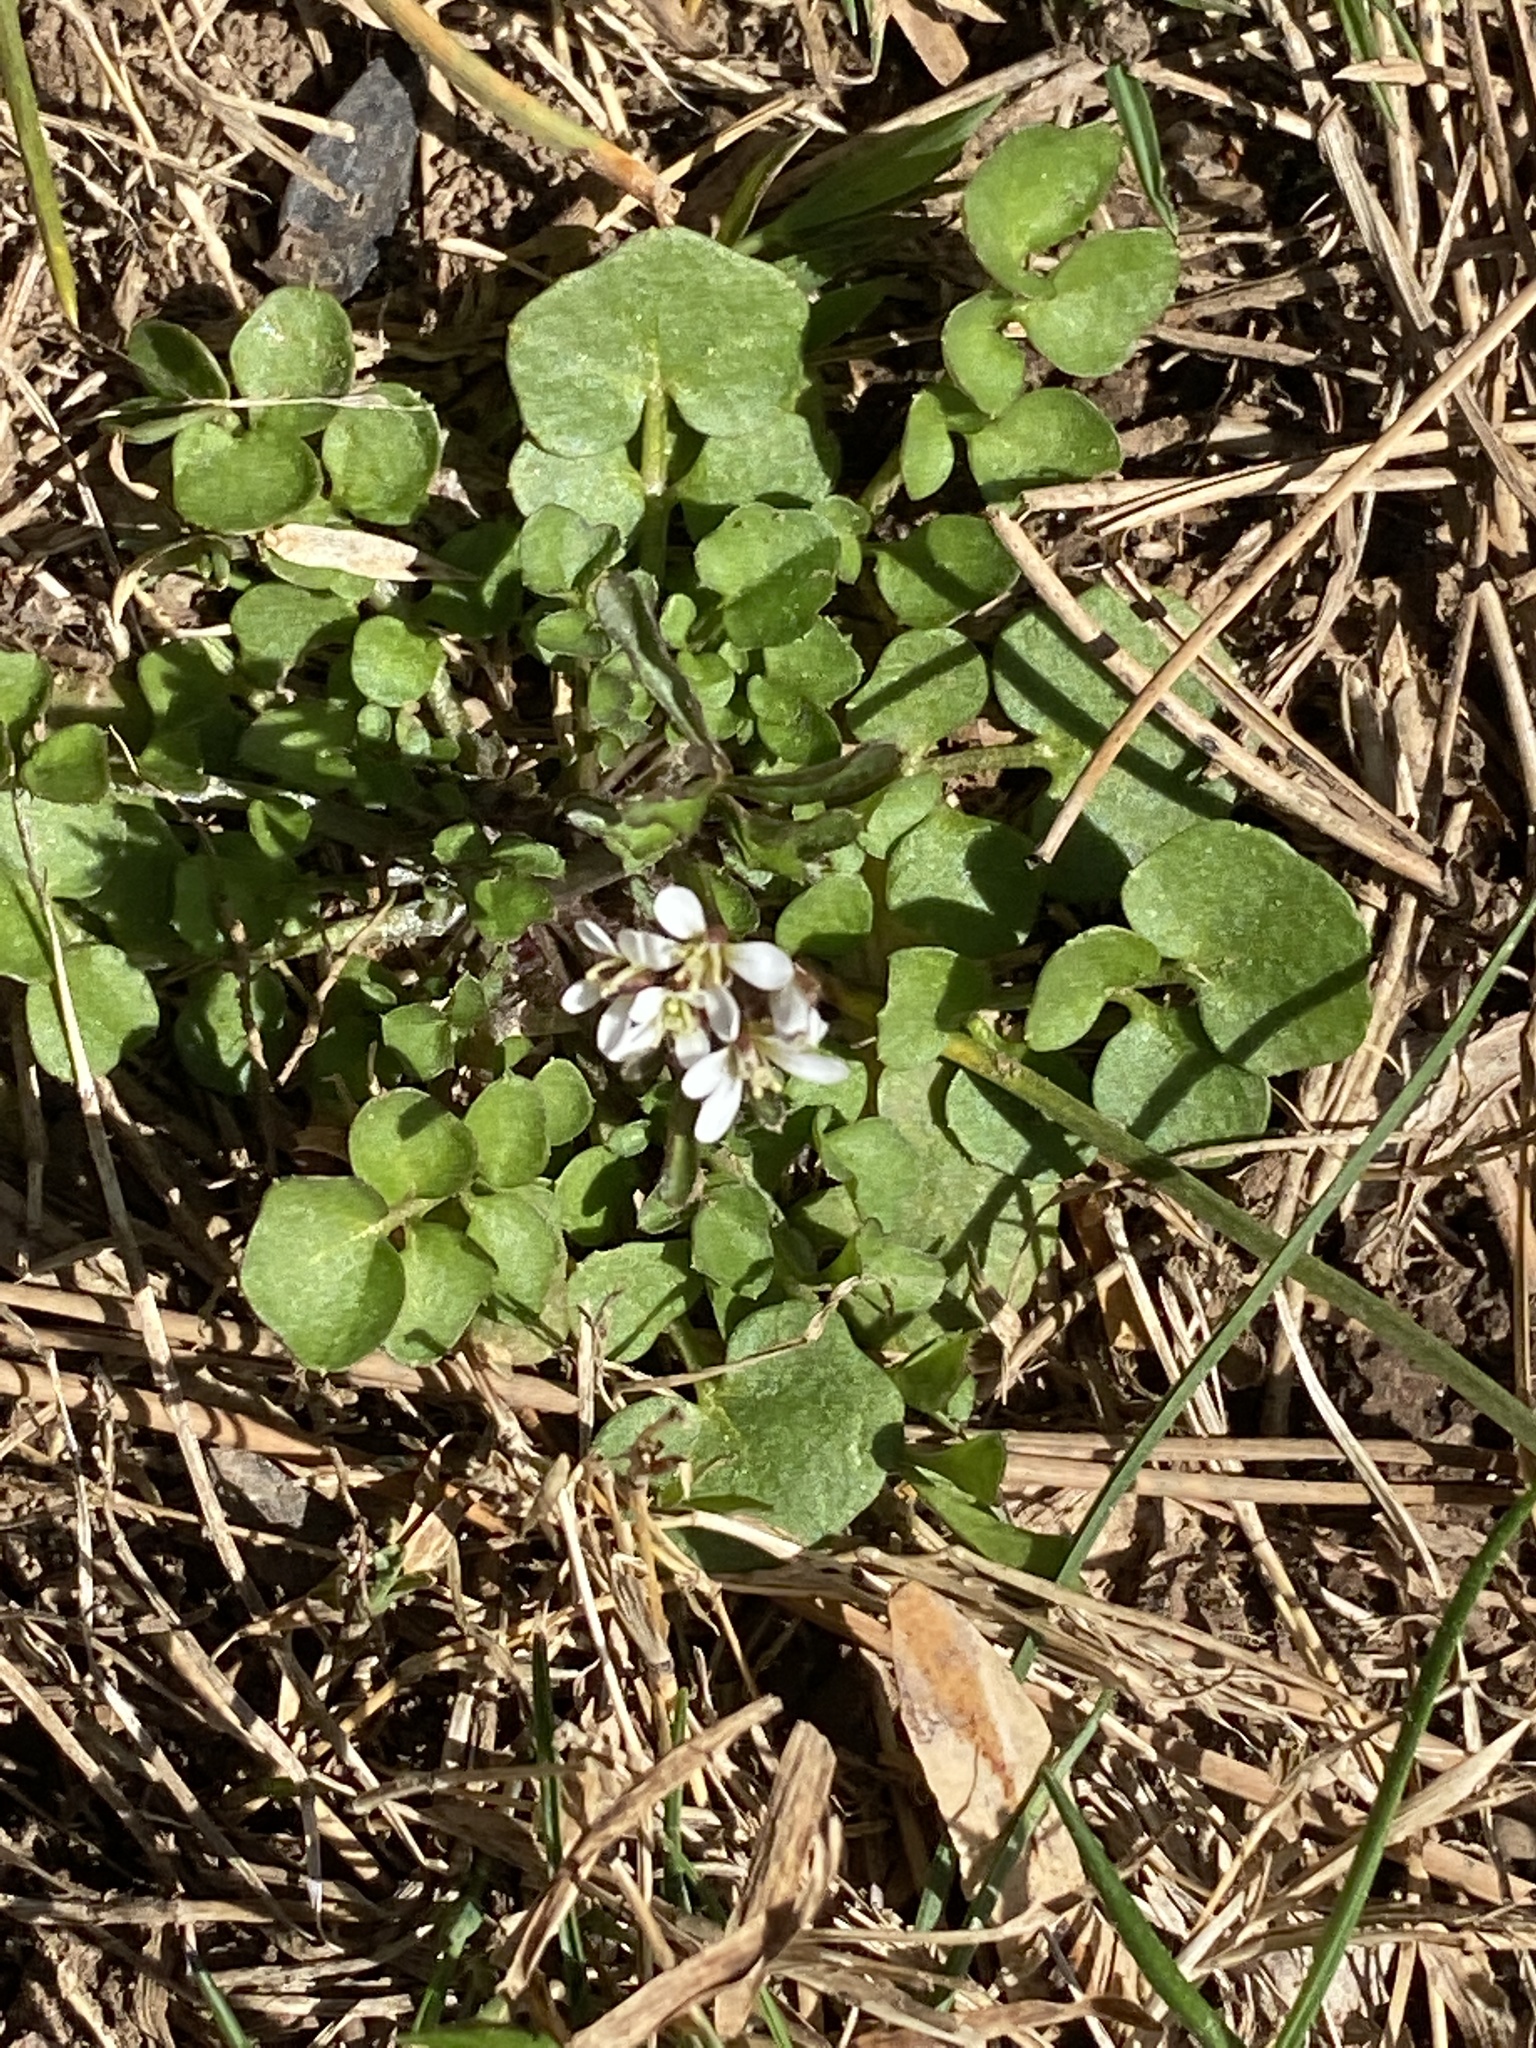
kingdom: Plantae
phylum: Tracheophyta
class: Magnoliopsida
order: Brassicales
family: Brassicaceae
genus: Cardamine
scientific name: Cardamine hirsuta
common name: Hairy bittercress
